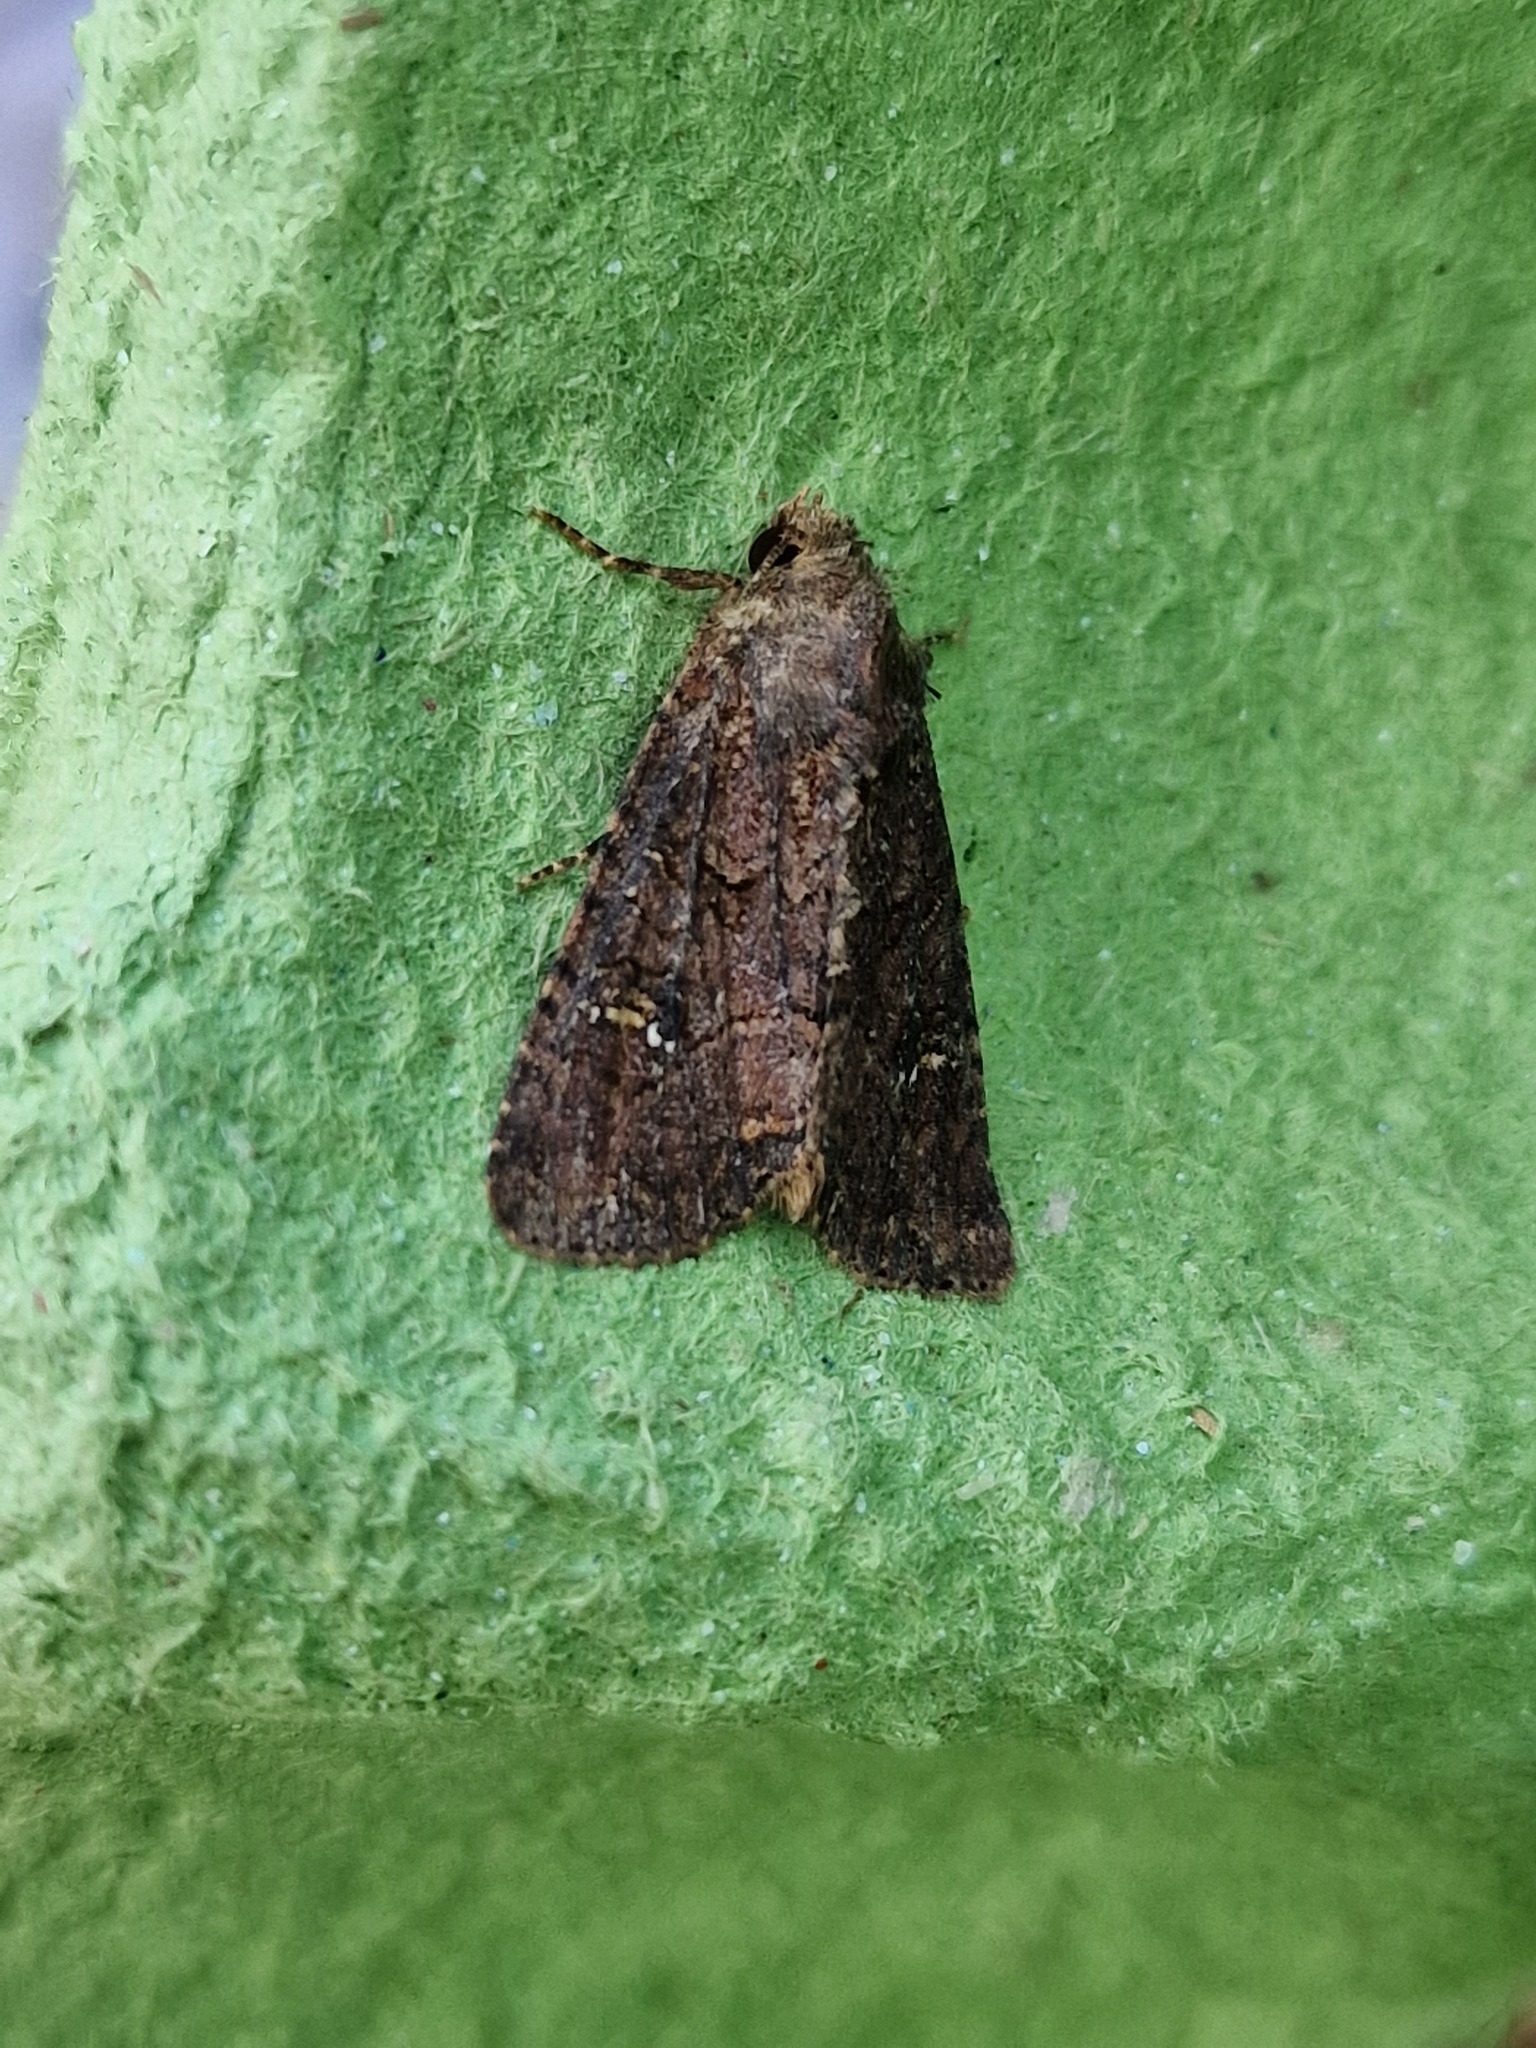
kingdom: Animalia
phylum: Arthropoda
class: Insecta
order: Lepidoptera
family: Noctuidae
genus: Mesapamea
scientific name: Mesapamea
